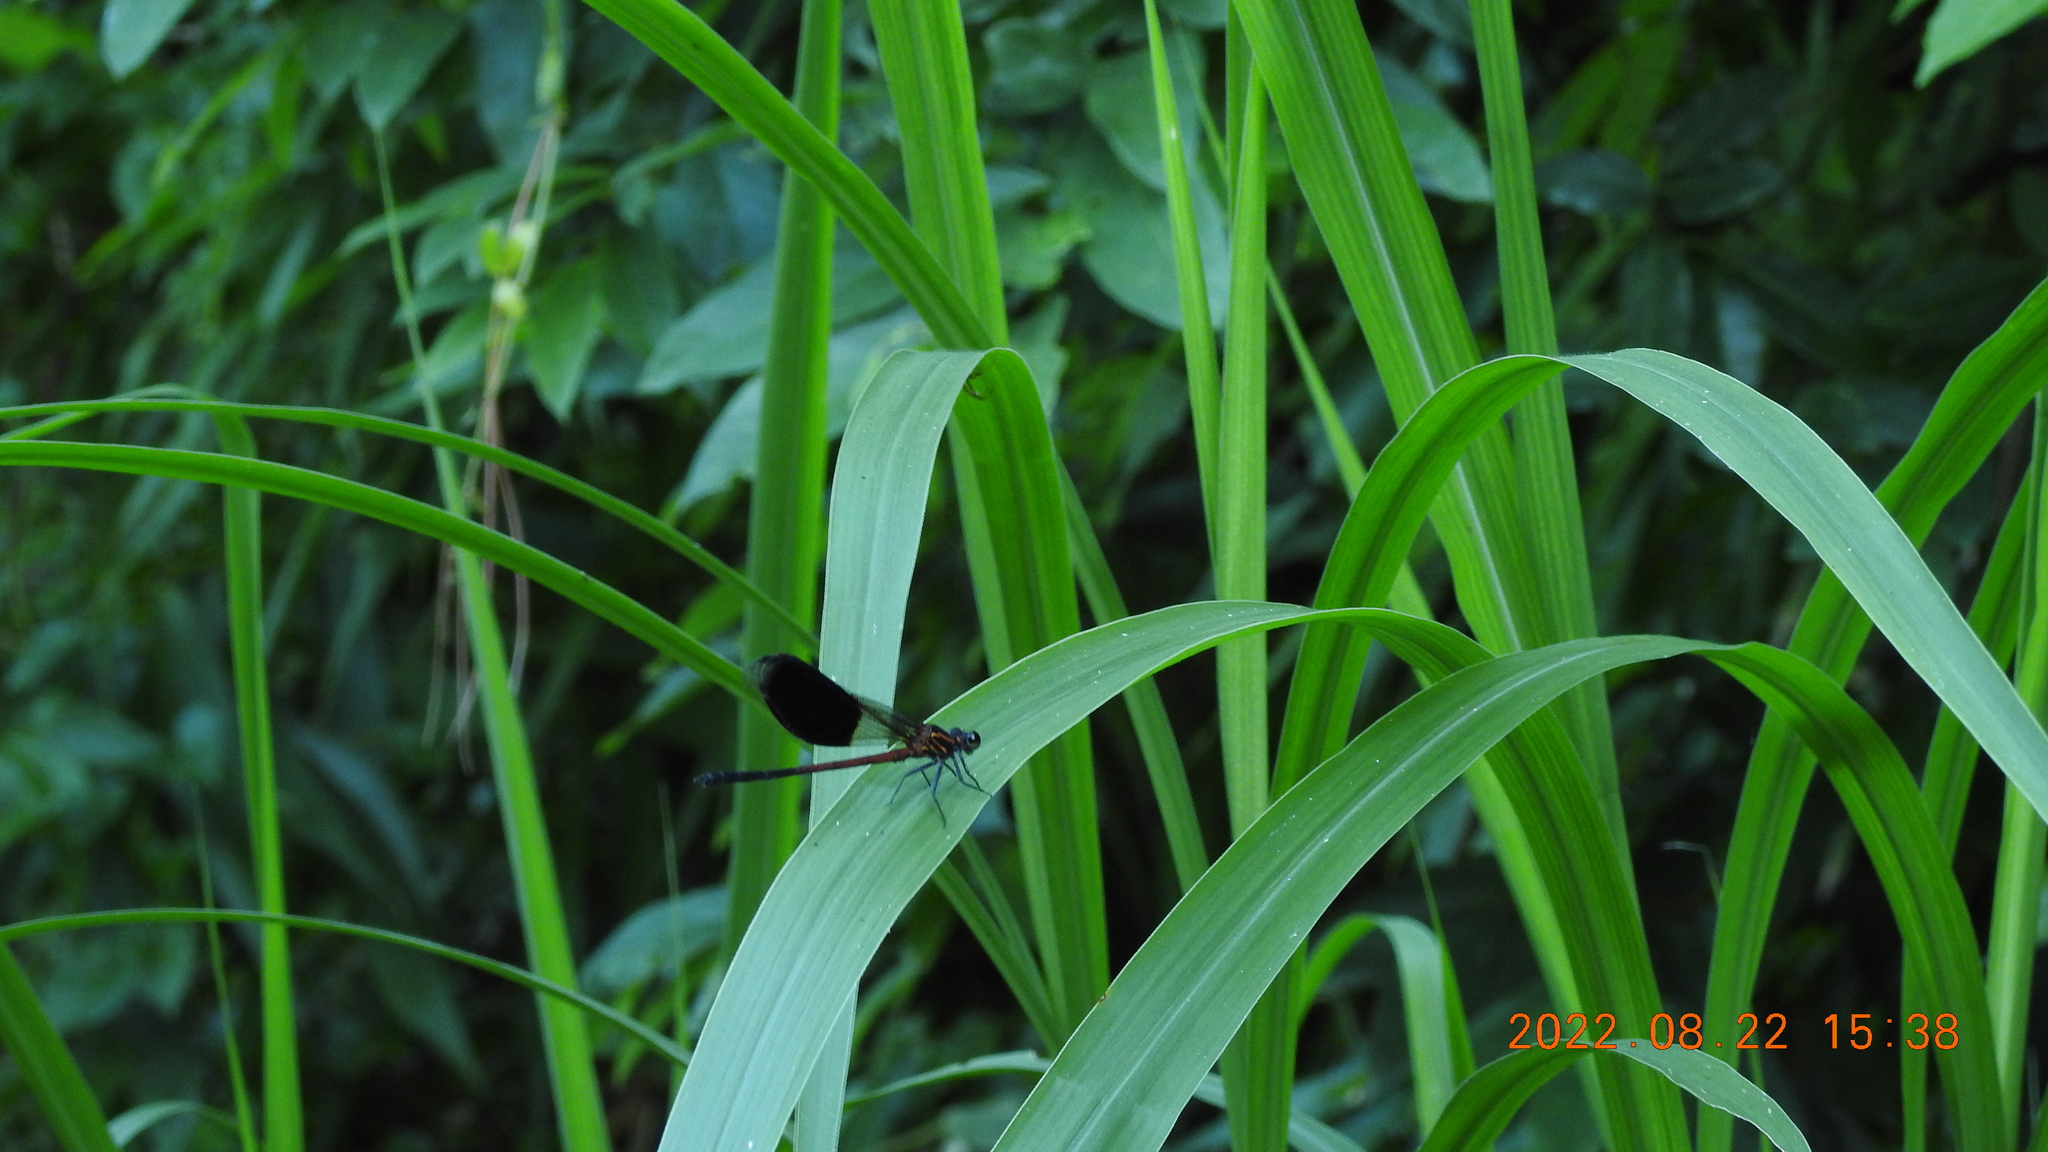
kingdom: Animalia
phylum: Arthropoda
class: Insecta
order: Odonata
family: Euphaeidae
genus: Euphaea
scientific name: Euphaea formosa
